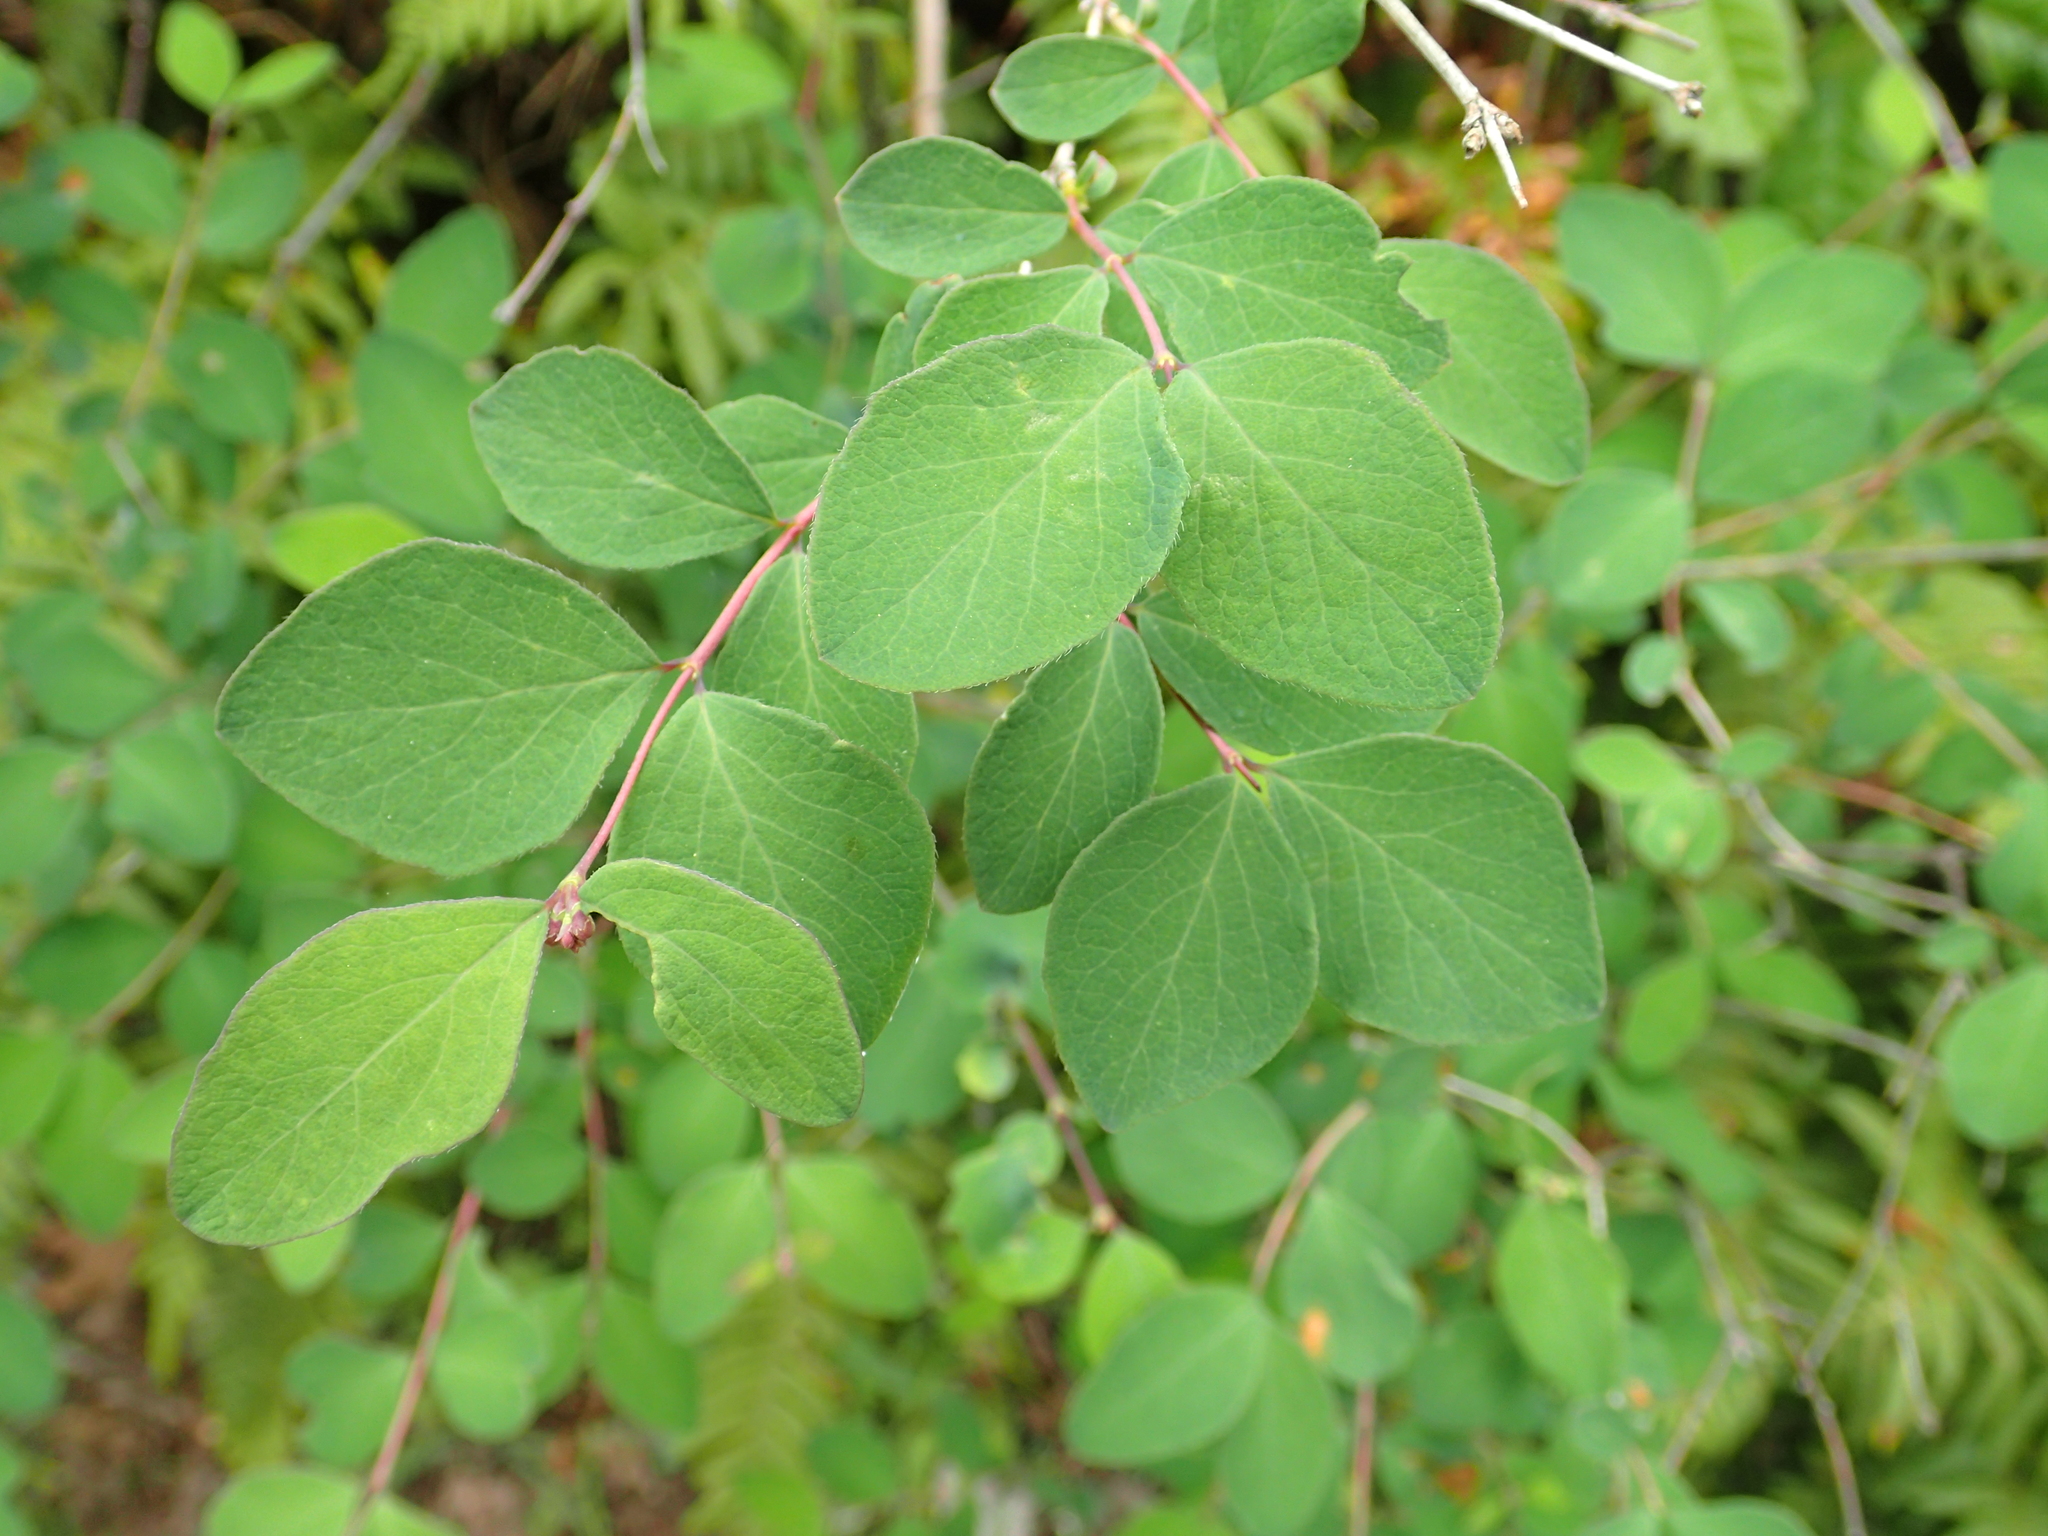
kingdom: Plantae
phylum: Tracheophyta
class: Magnoliopsida
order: Dipsacales
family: Caprifoliaceae
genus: Symphoricarpos
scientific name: Symphoricarpos albus
